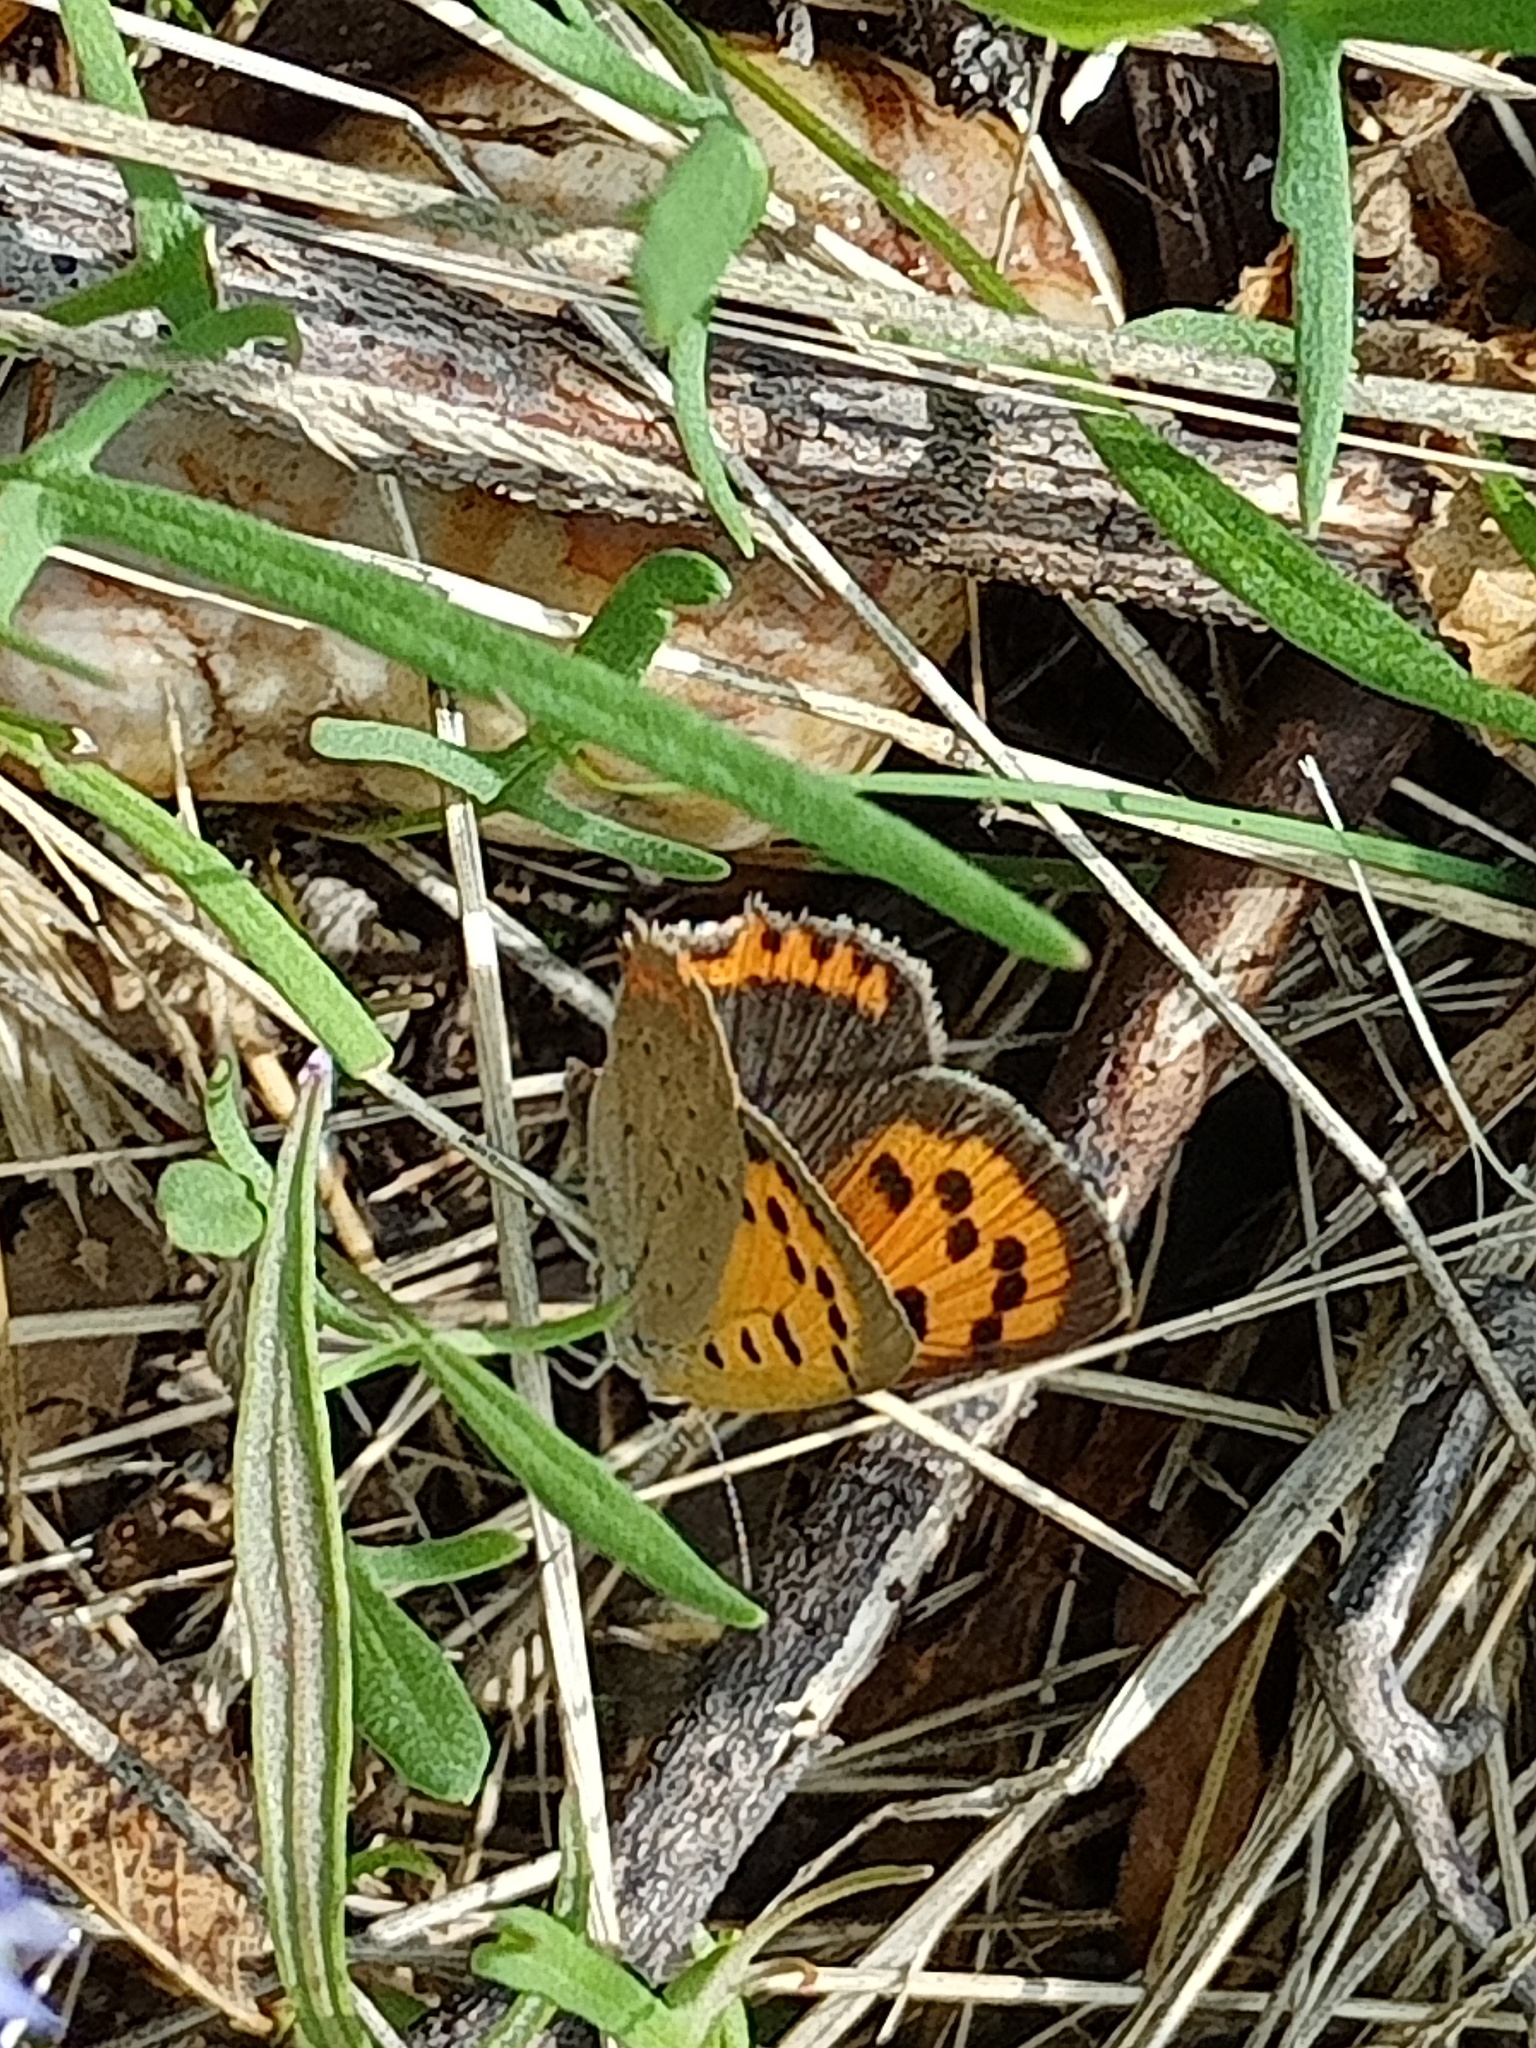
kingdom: Animalia
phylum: Arthropoda
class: Insecta
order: Lepidoptera
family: Lycaenidae
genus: Lycaena
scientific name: Lycaena phlaeas
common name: Small copper
